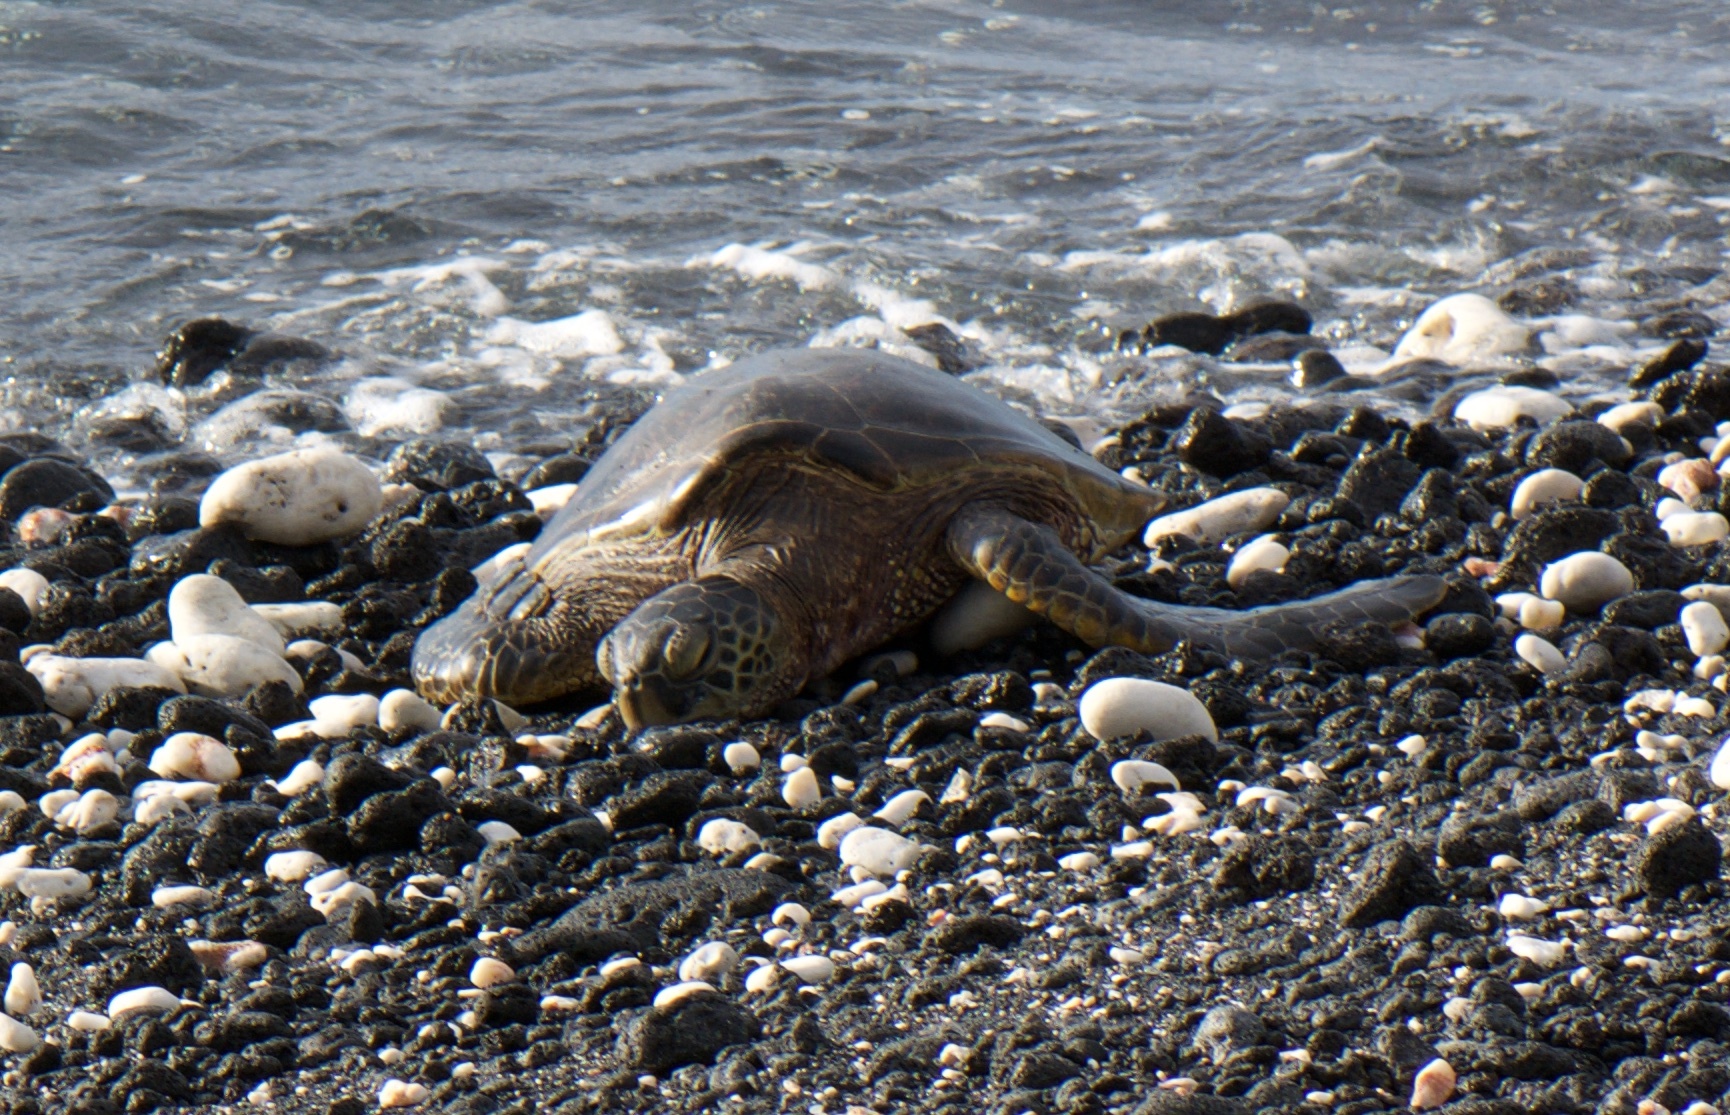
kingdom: Animalia
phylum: Chordata
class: Testudines
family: Cheloniidae
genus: Chelonia
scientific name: Chelonia mydas
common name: Green turtle
